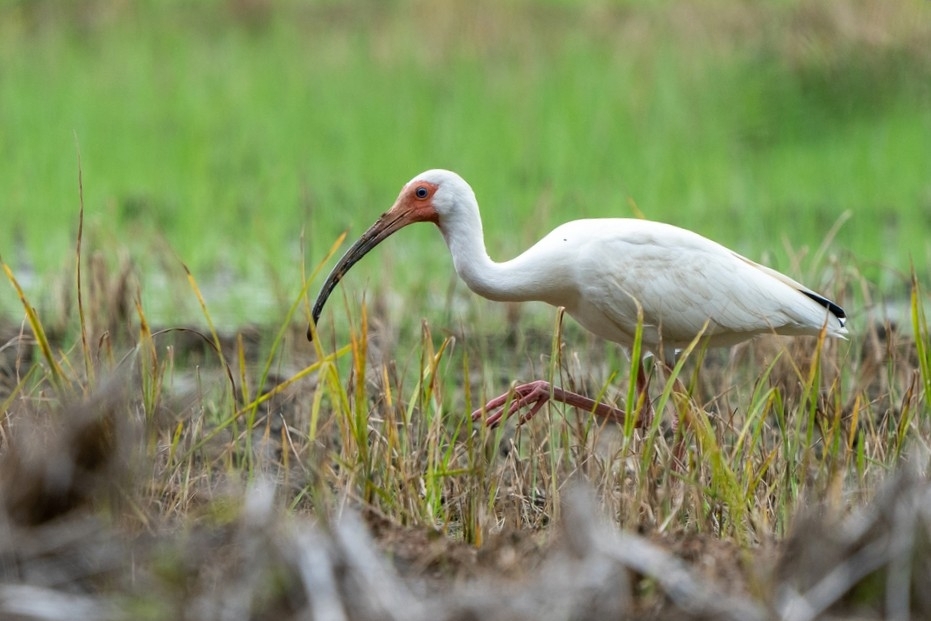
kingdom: Animalia
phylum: Chordata
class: Aves
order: Pelecaniformes
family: Threskiornithidae
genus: Eudocimus
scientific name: Eudocimus albus
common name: White ibis
